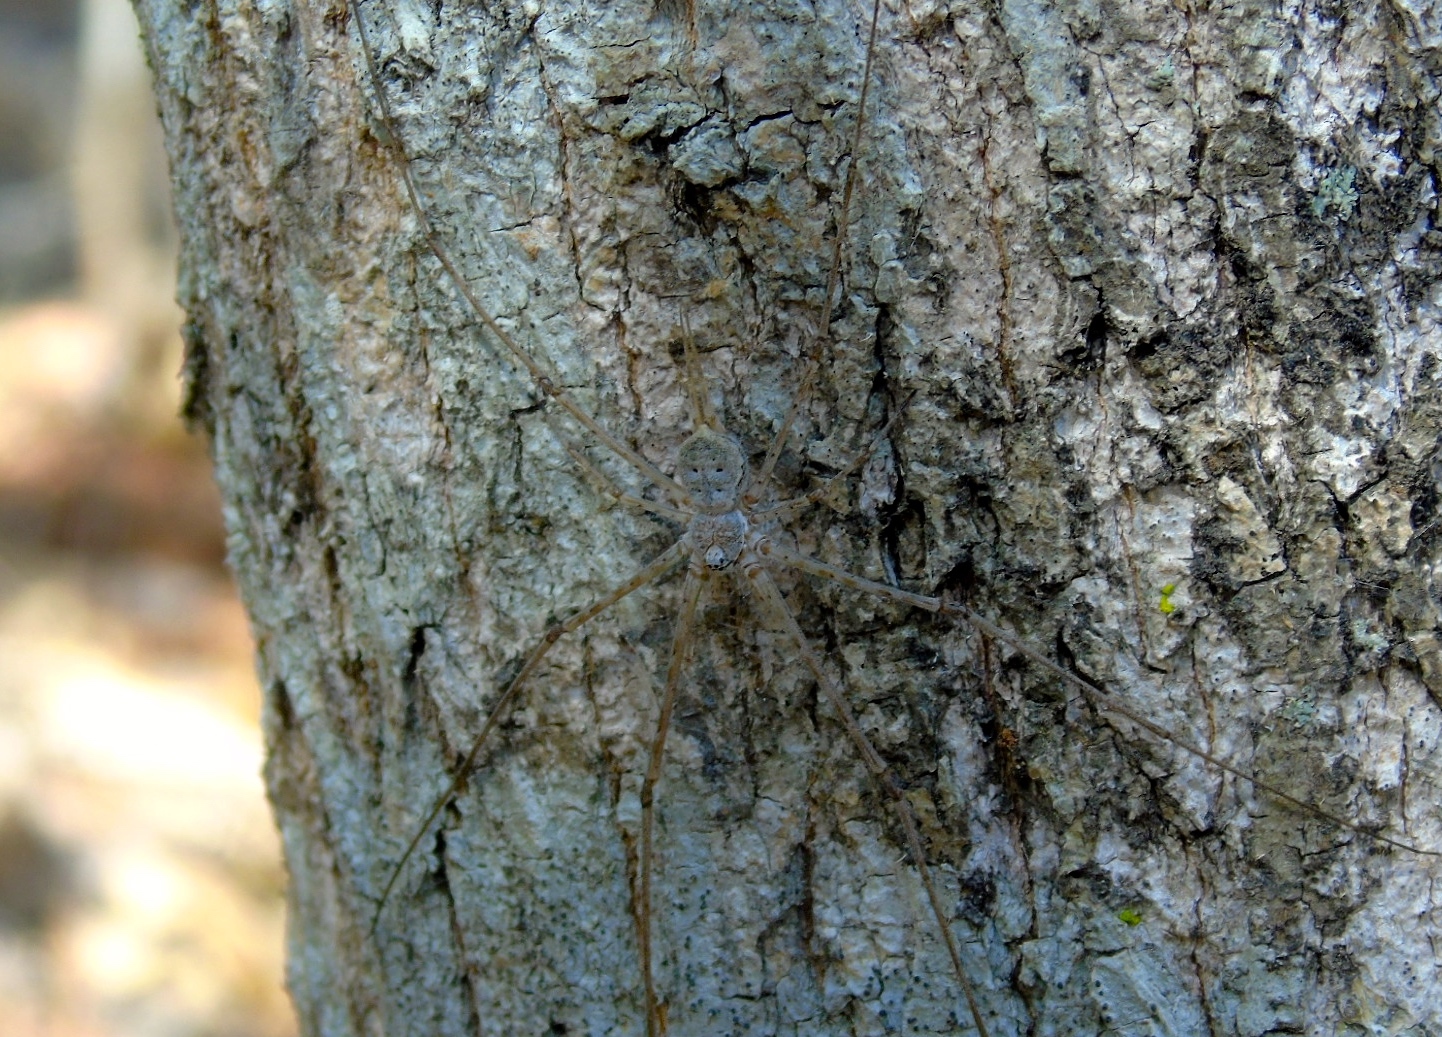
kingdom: Animalia
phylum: Arthropoda
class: Arachnida
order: Araneae
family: Hersiliidae
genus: Neotama
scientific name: Neotama mexicana
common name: Tree trunk spiders
